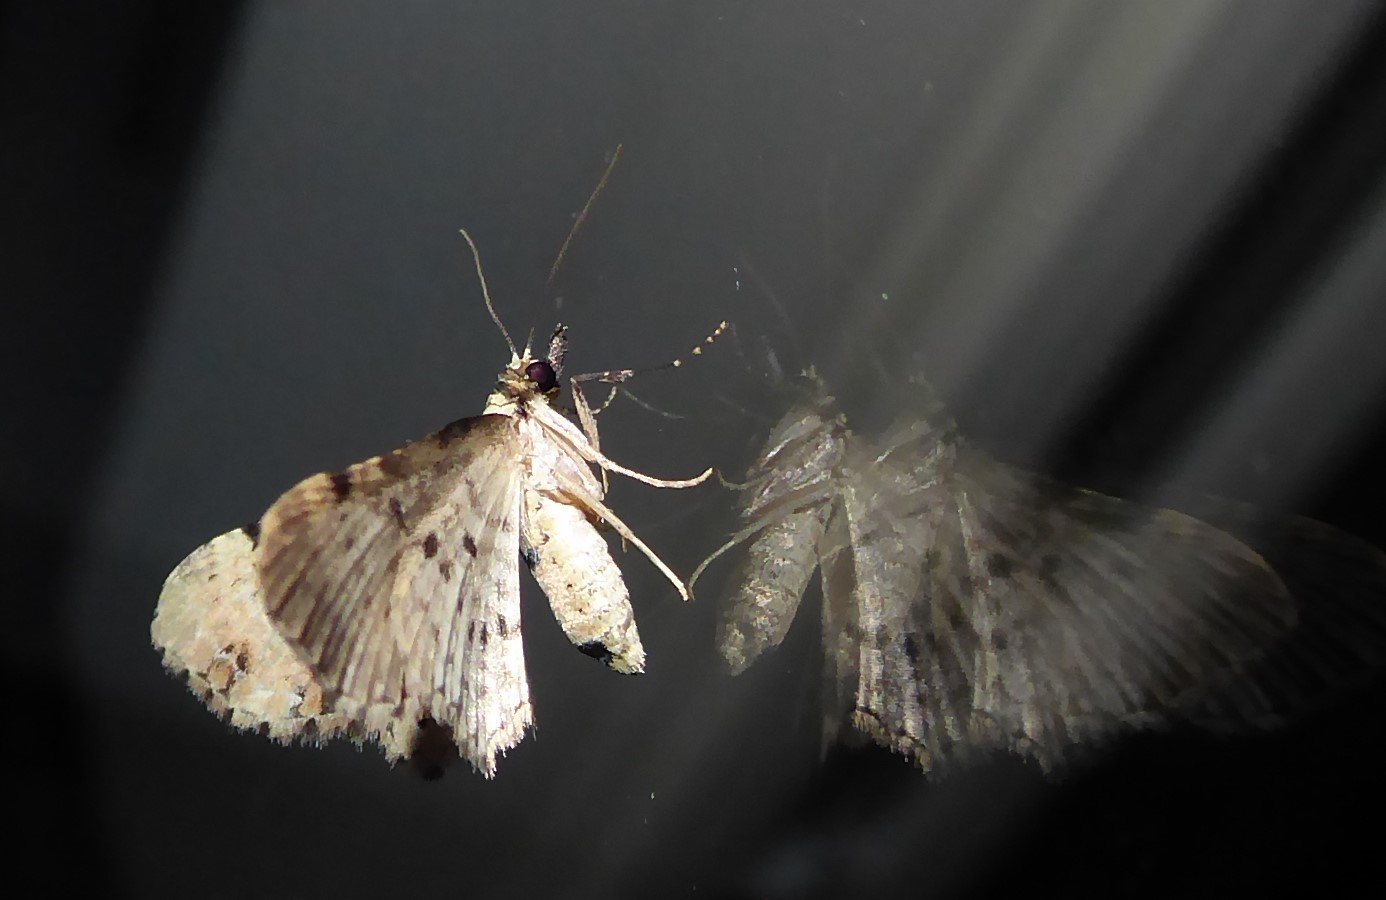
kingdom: Animalia
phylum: Arthropoda
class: Insecta
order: Lepidoptera
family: Geometridae
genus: Pasiphila
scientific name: Pasiphila fumipalpata
